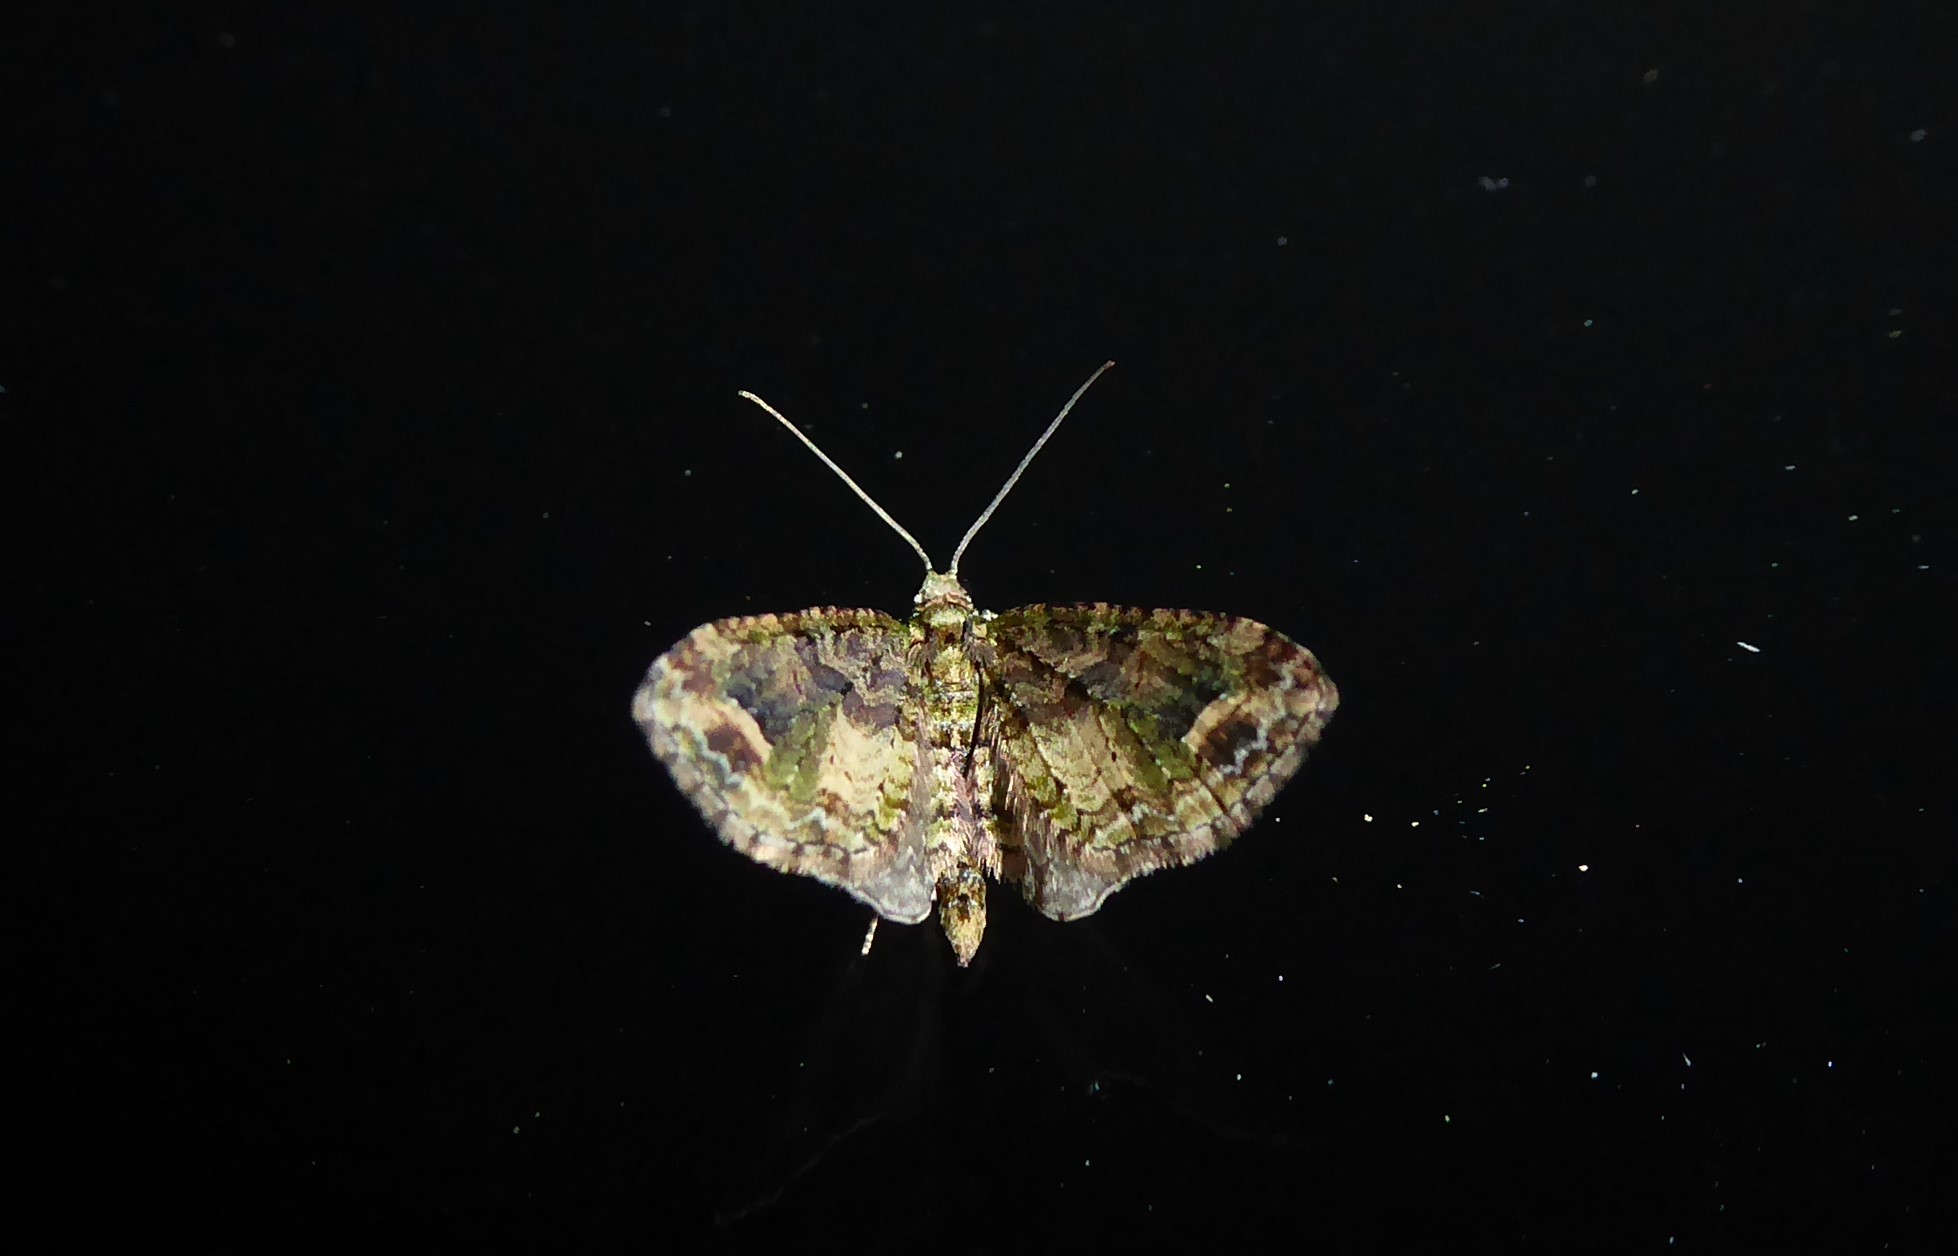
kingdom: Animalia
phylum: Arthropoda
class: Insecta
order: Lepidoptera
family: Geometridae
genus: Idaea
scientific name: Idaea mutanda
